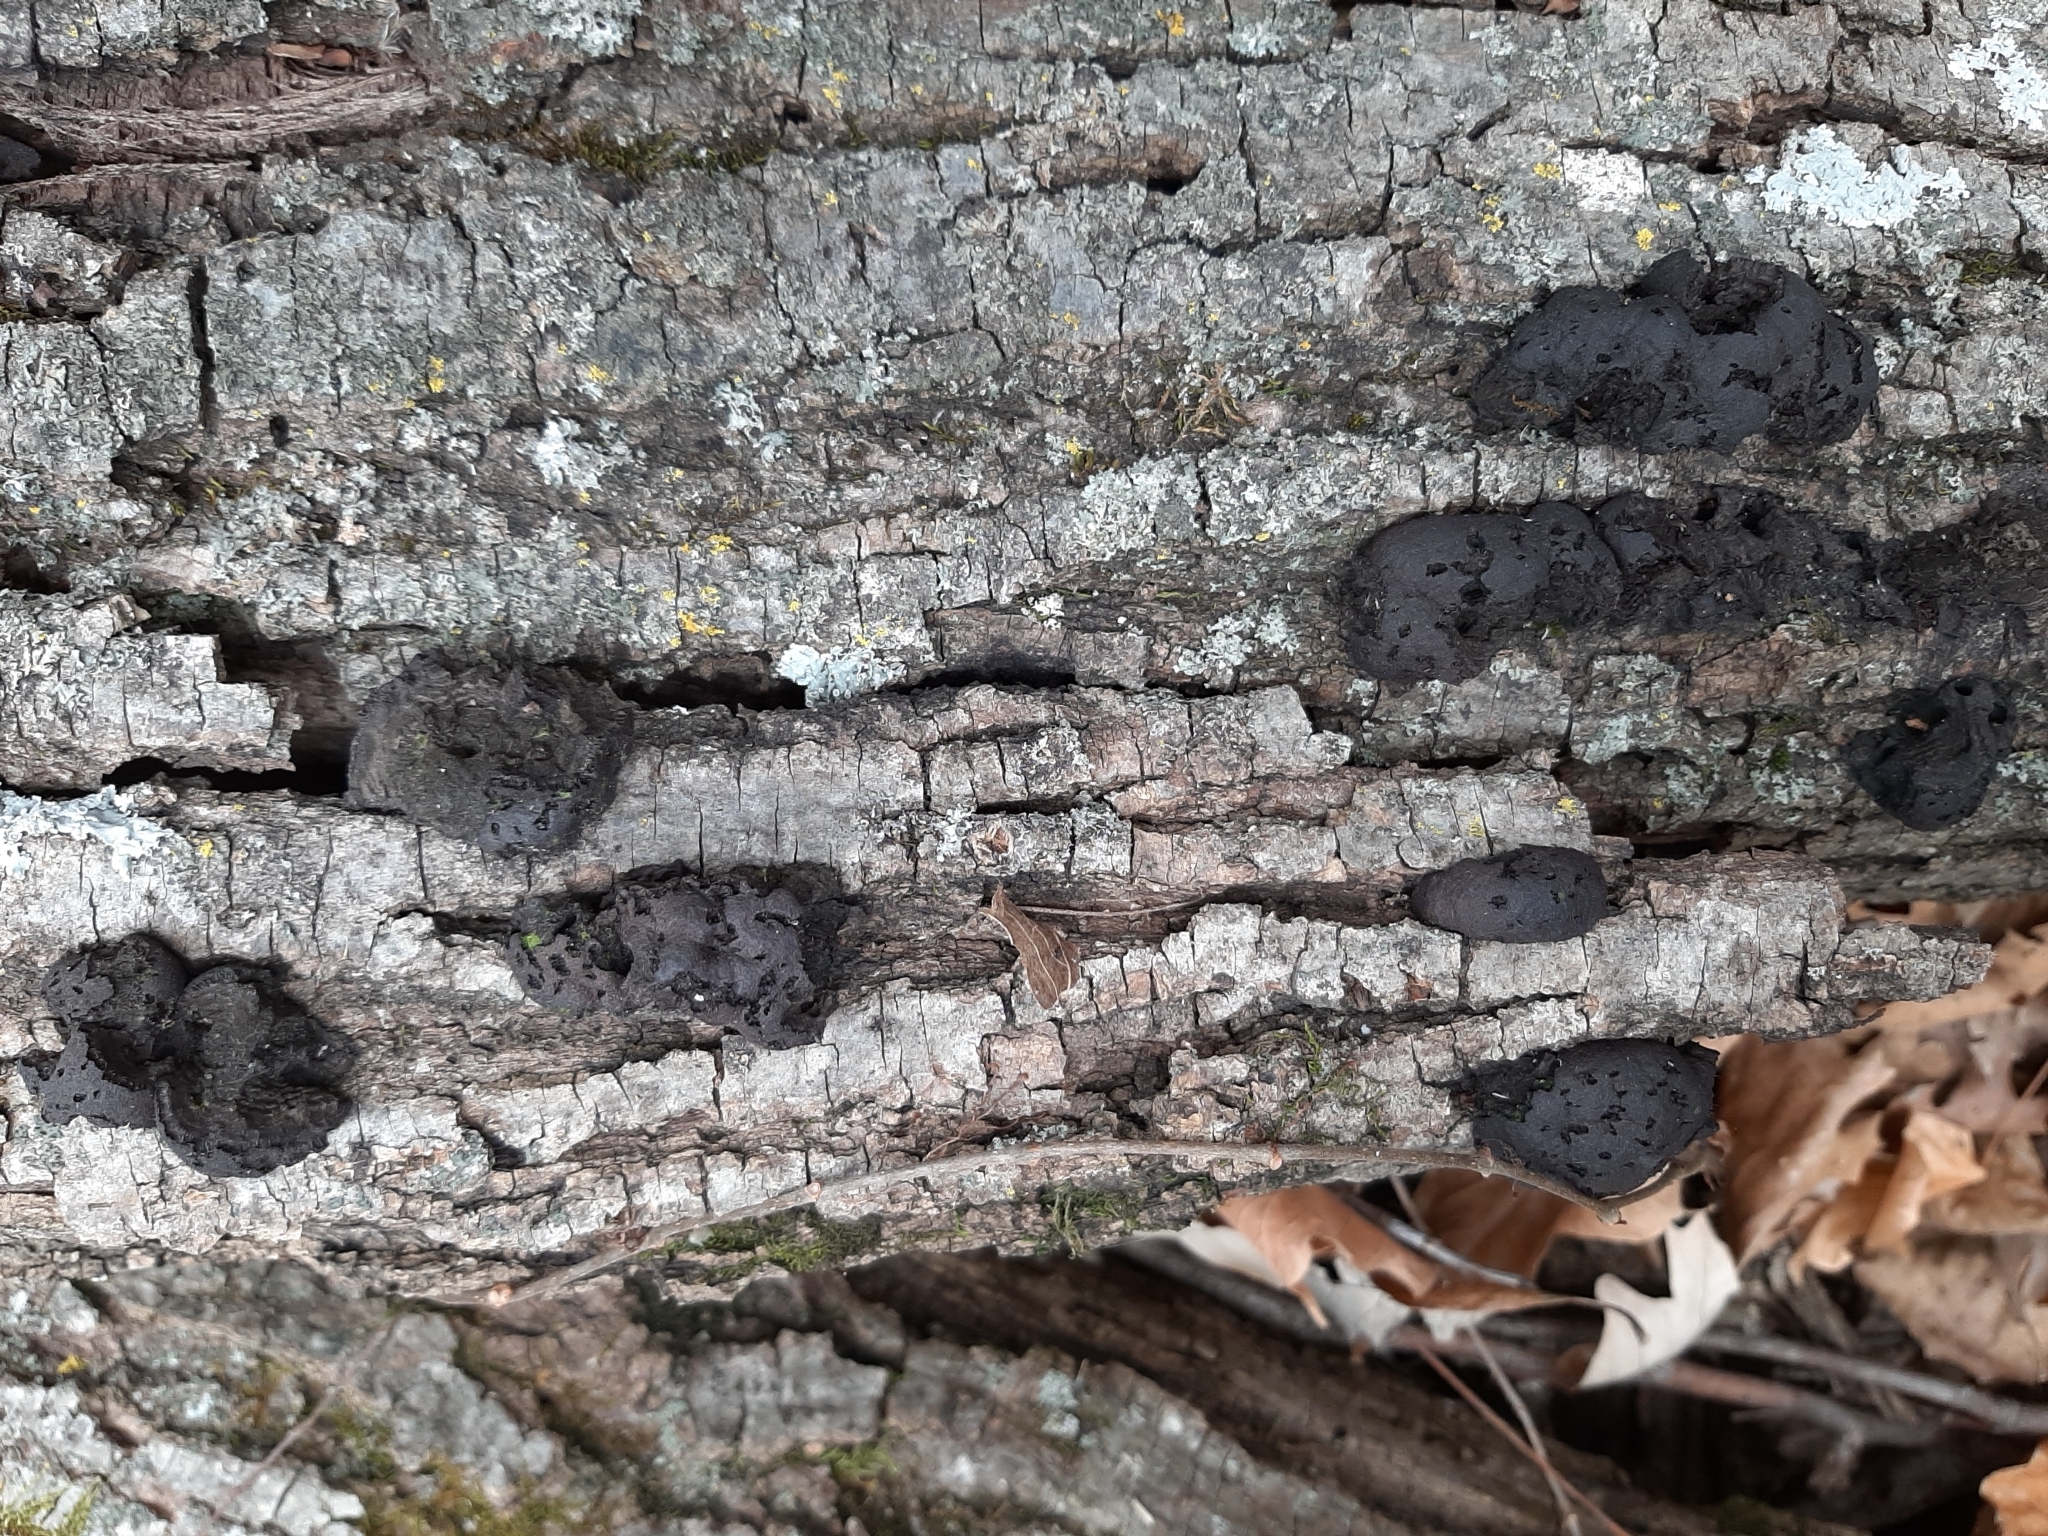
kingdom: Fungi
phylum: Ascomycota
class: Sordariomycetes
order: Xylariales
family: Xylariaceae
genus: Kretzschmaria
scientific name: Kretzschmaria deusta
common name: Brittle cinder
